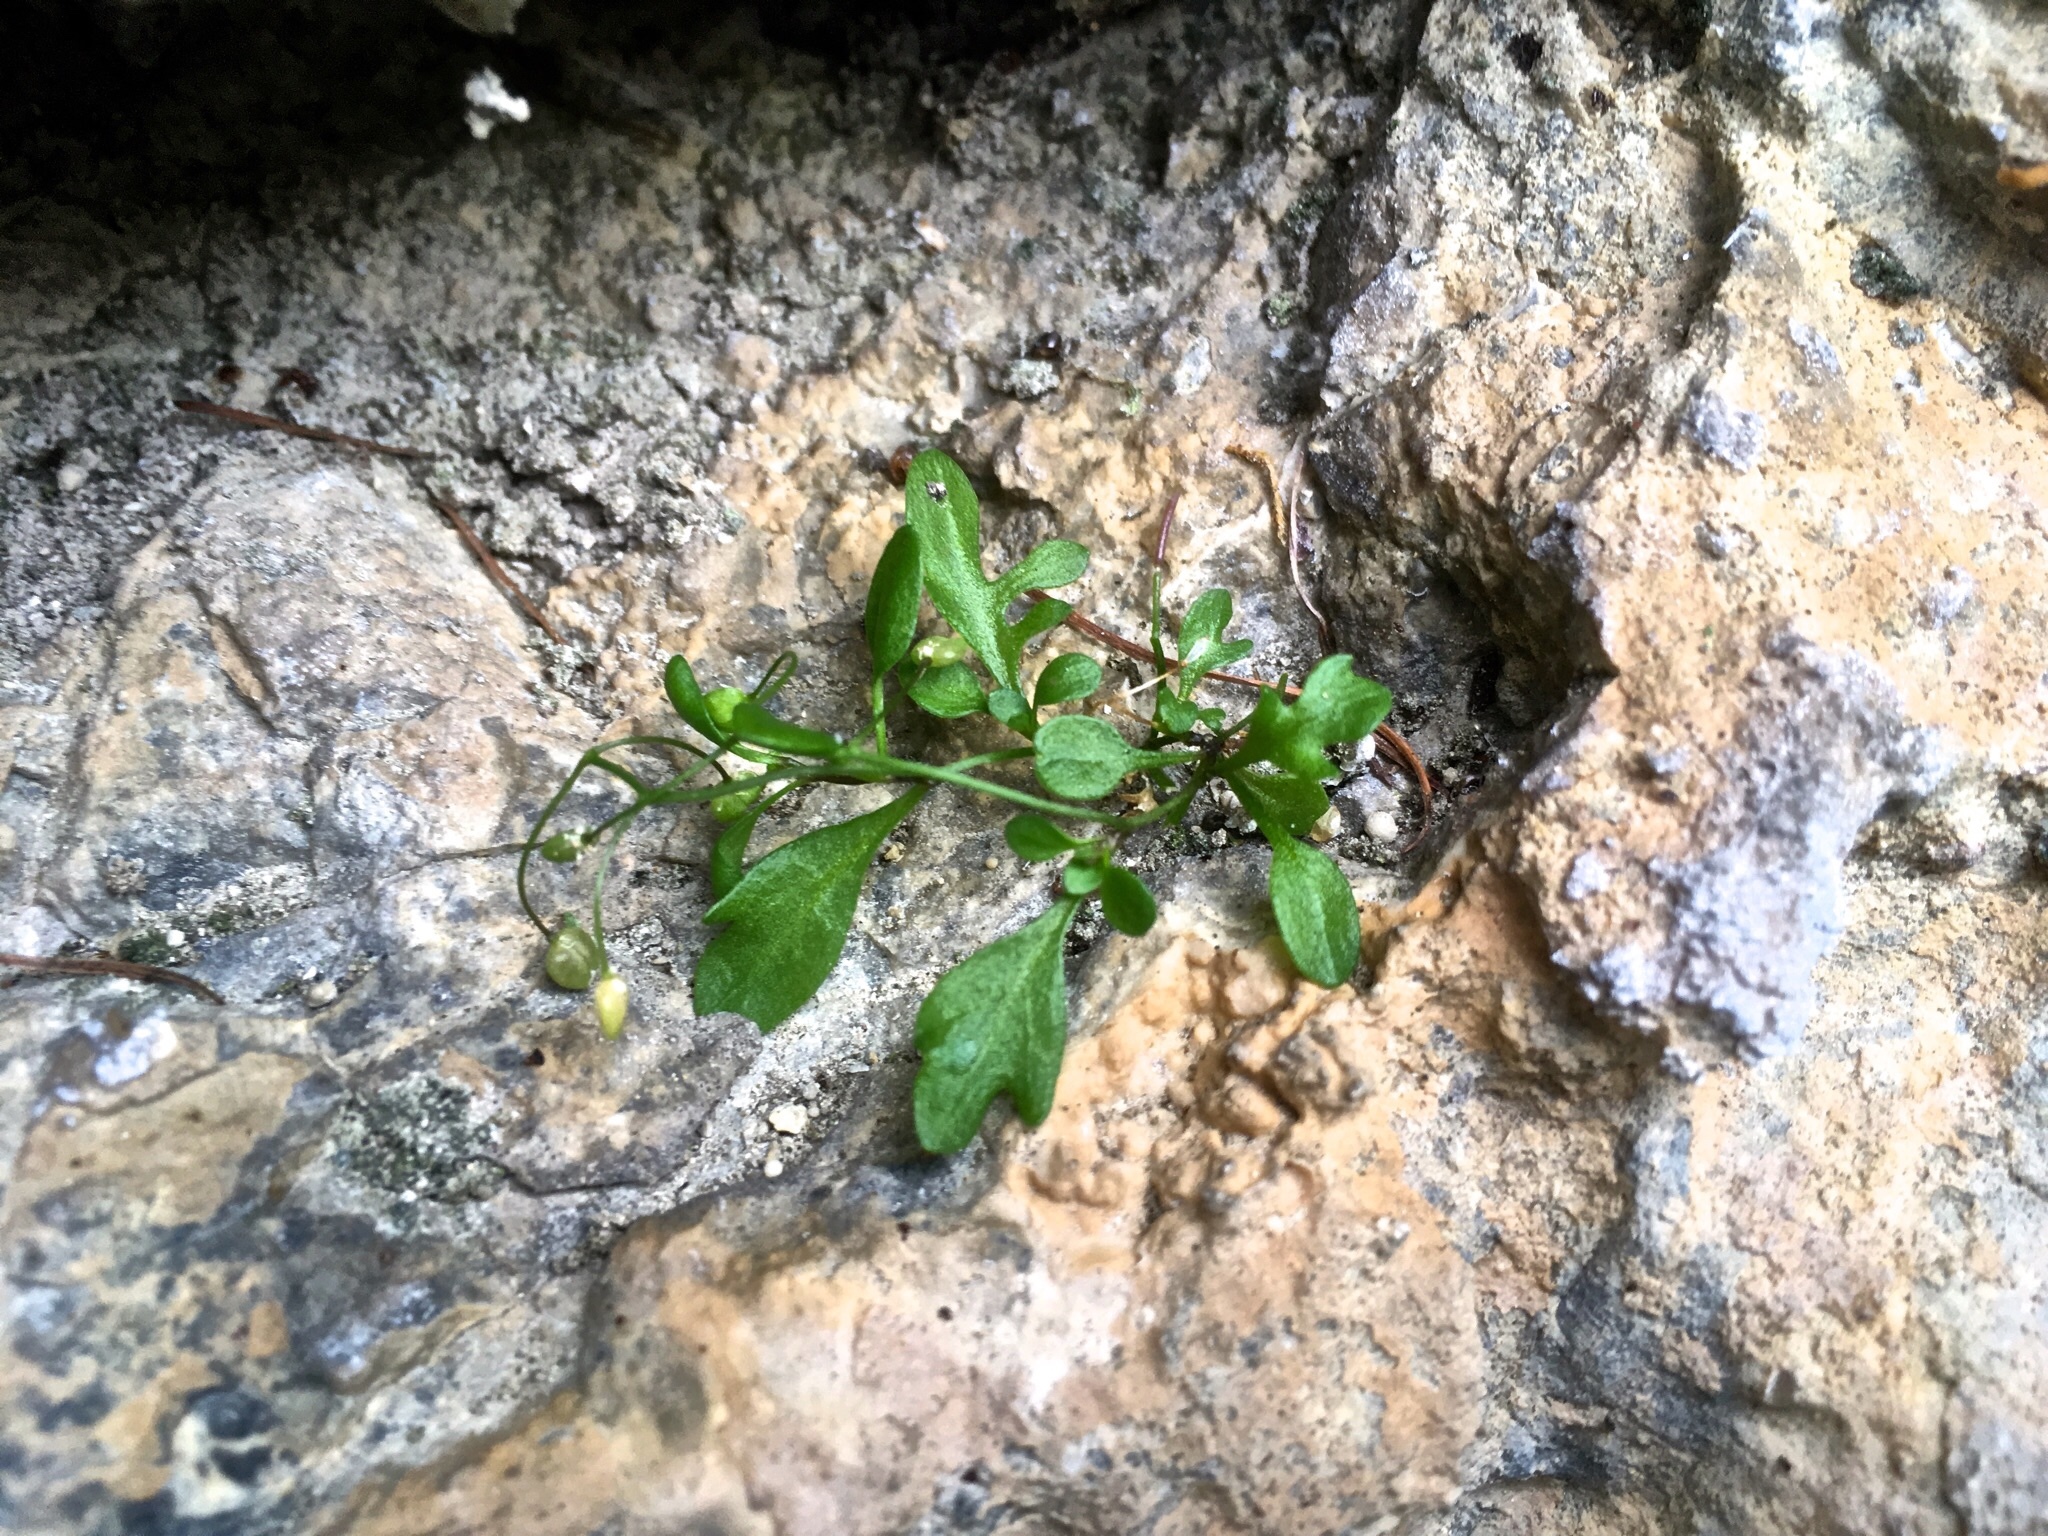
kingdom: Plantae
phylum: Tracheophyta
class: Magnoliopsida
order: Brassicales
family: Brassicaceae
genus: Hornungia
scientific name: Hornungia procumbens
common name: Oval purse
